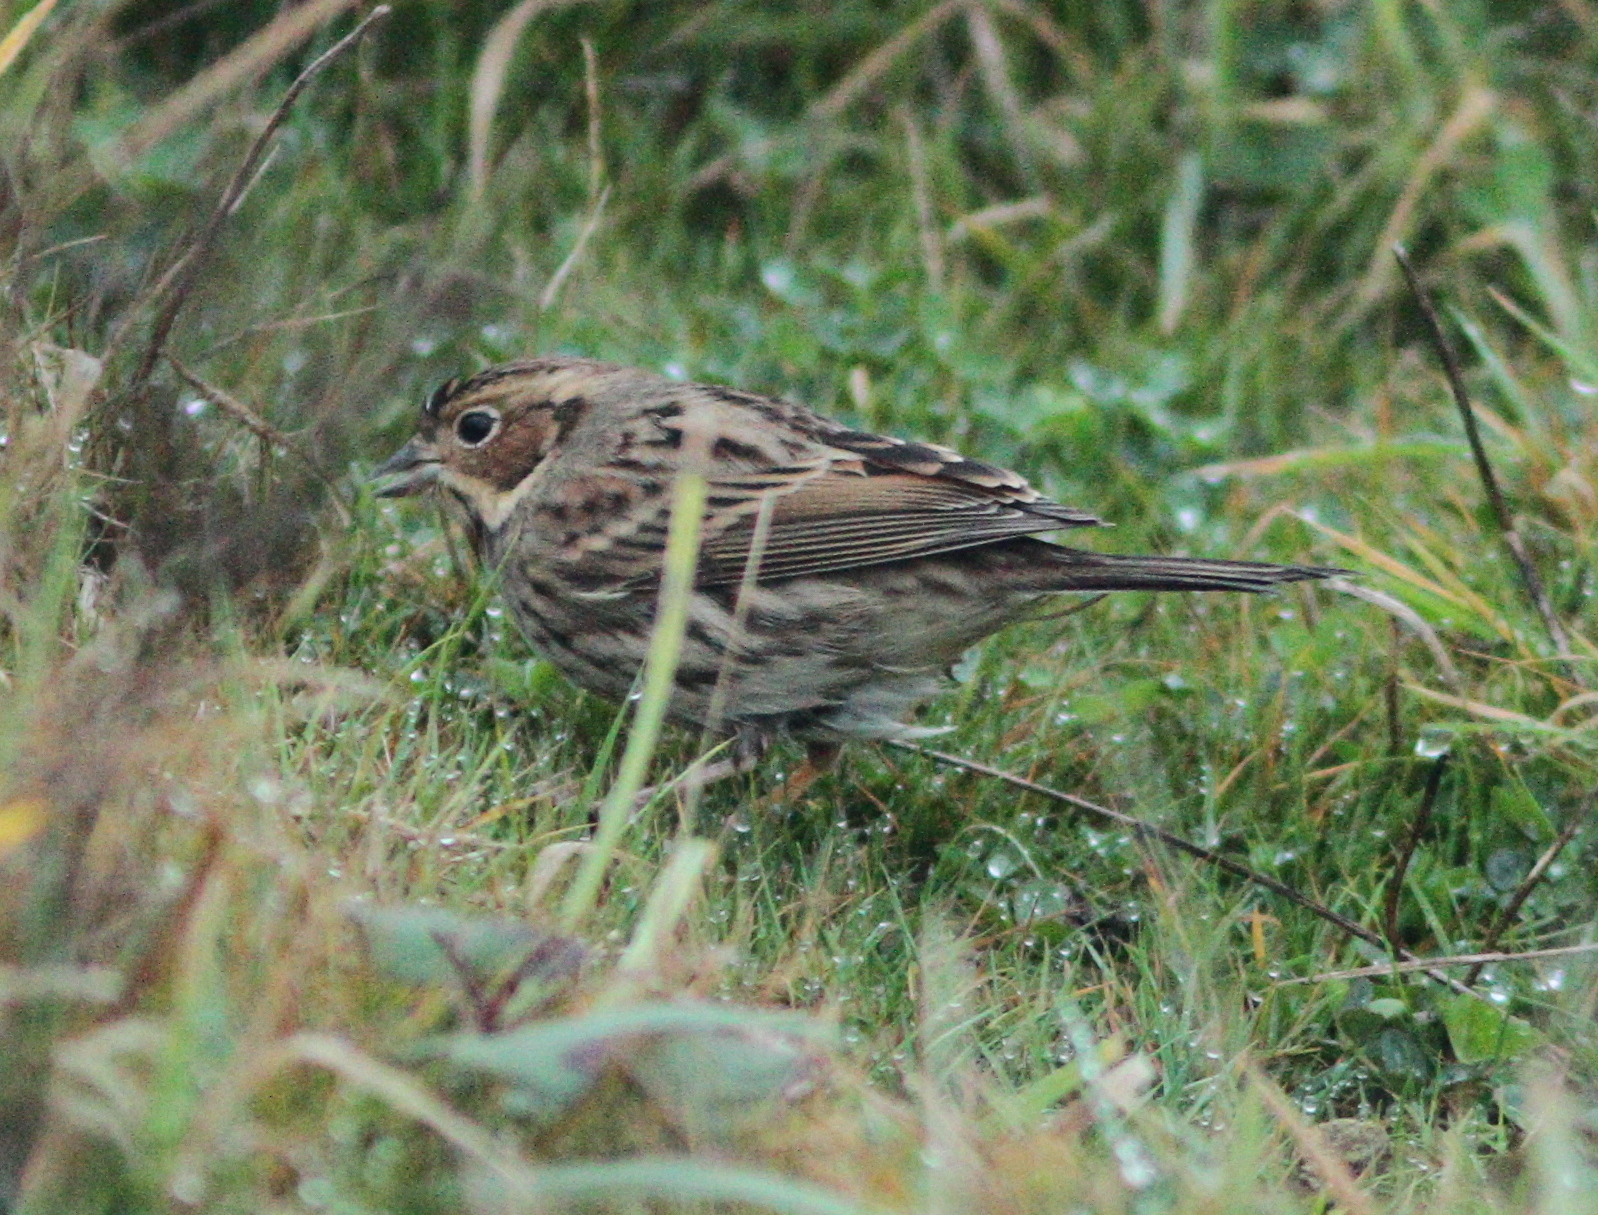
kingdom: Animalia
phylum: Chordata
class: Aves
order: Passeriformes
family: Emberizidae
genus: Emberiza
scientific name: Emberiza pusilla
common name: Little bunting
